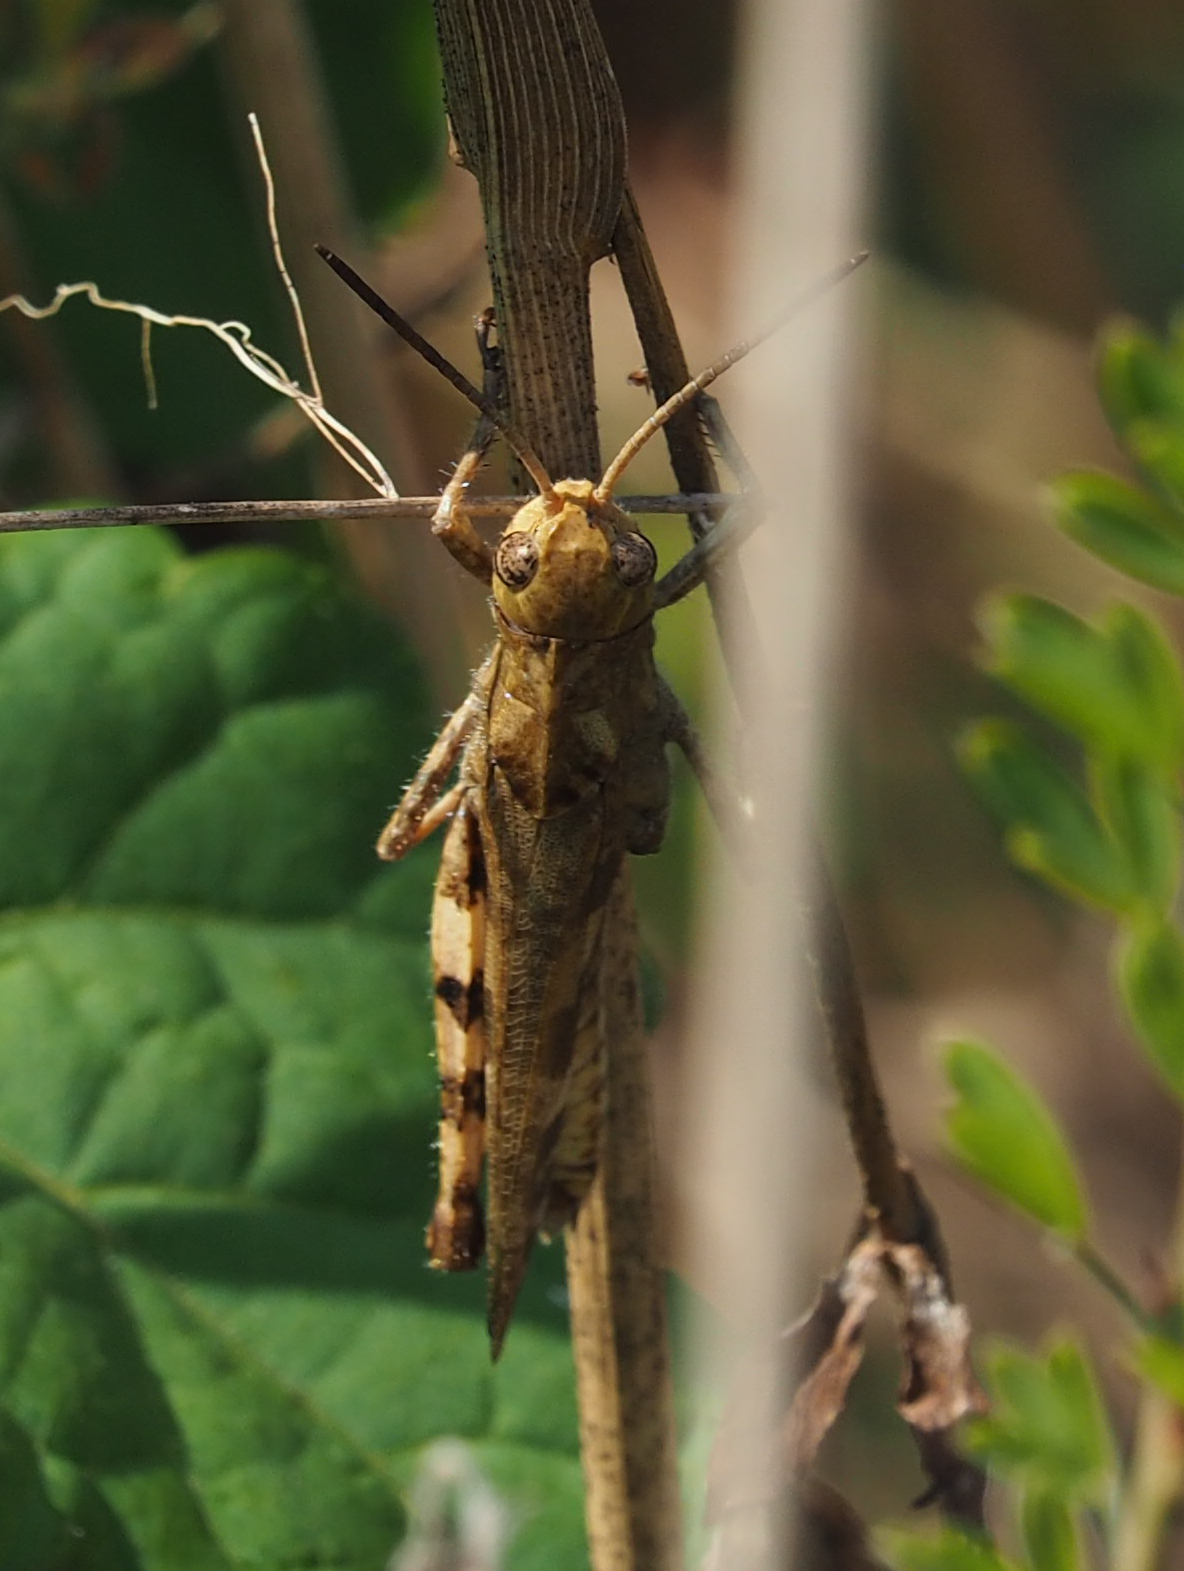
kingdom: Animalia
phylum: Arthropoda
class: Insecta
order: Orthoptera
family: Acrididae
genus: Encoptolophus
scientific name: Encoptolophus sordidus
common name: Dusky grasshopper
